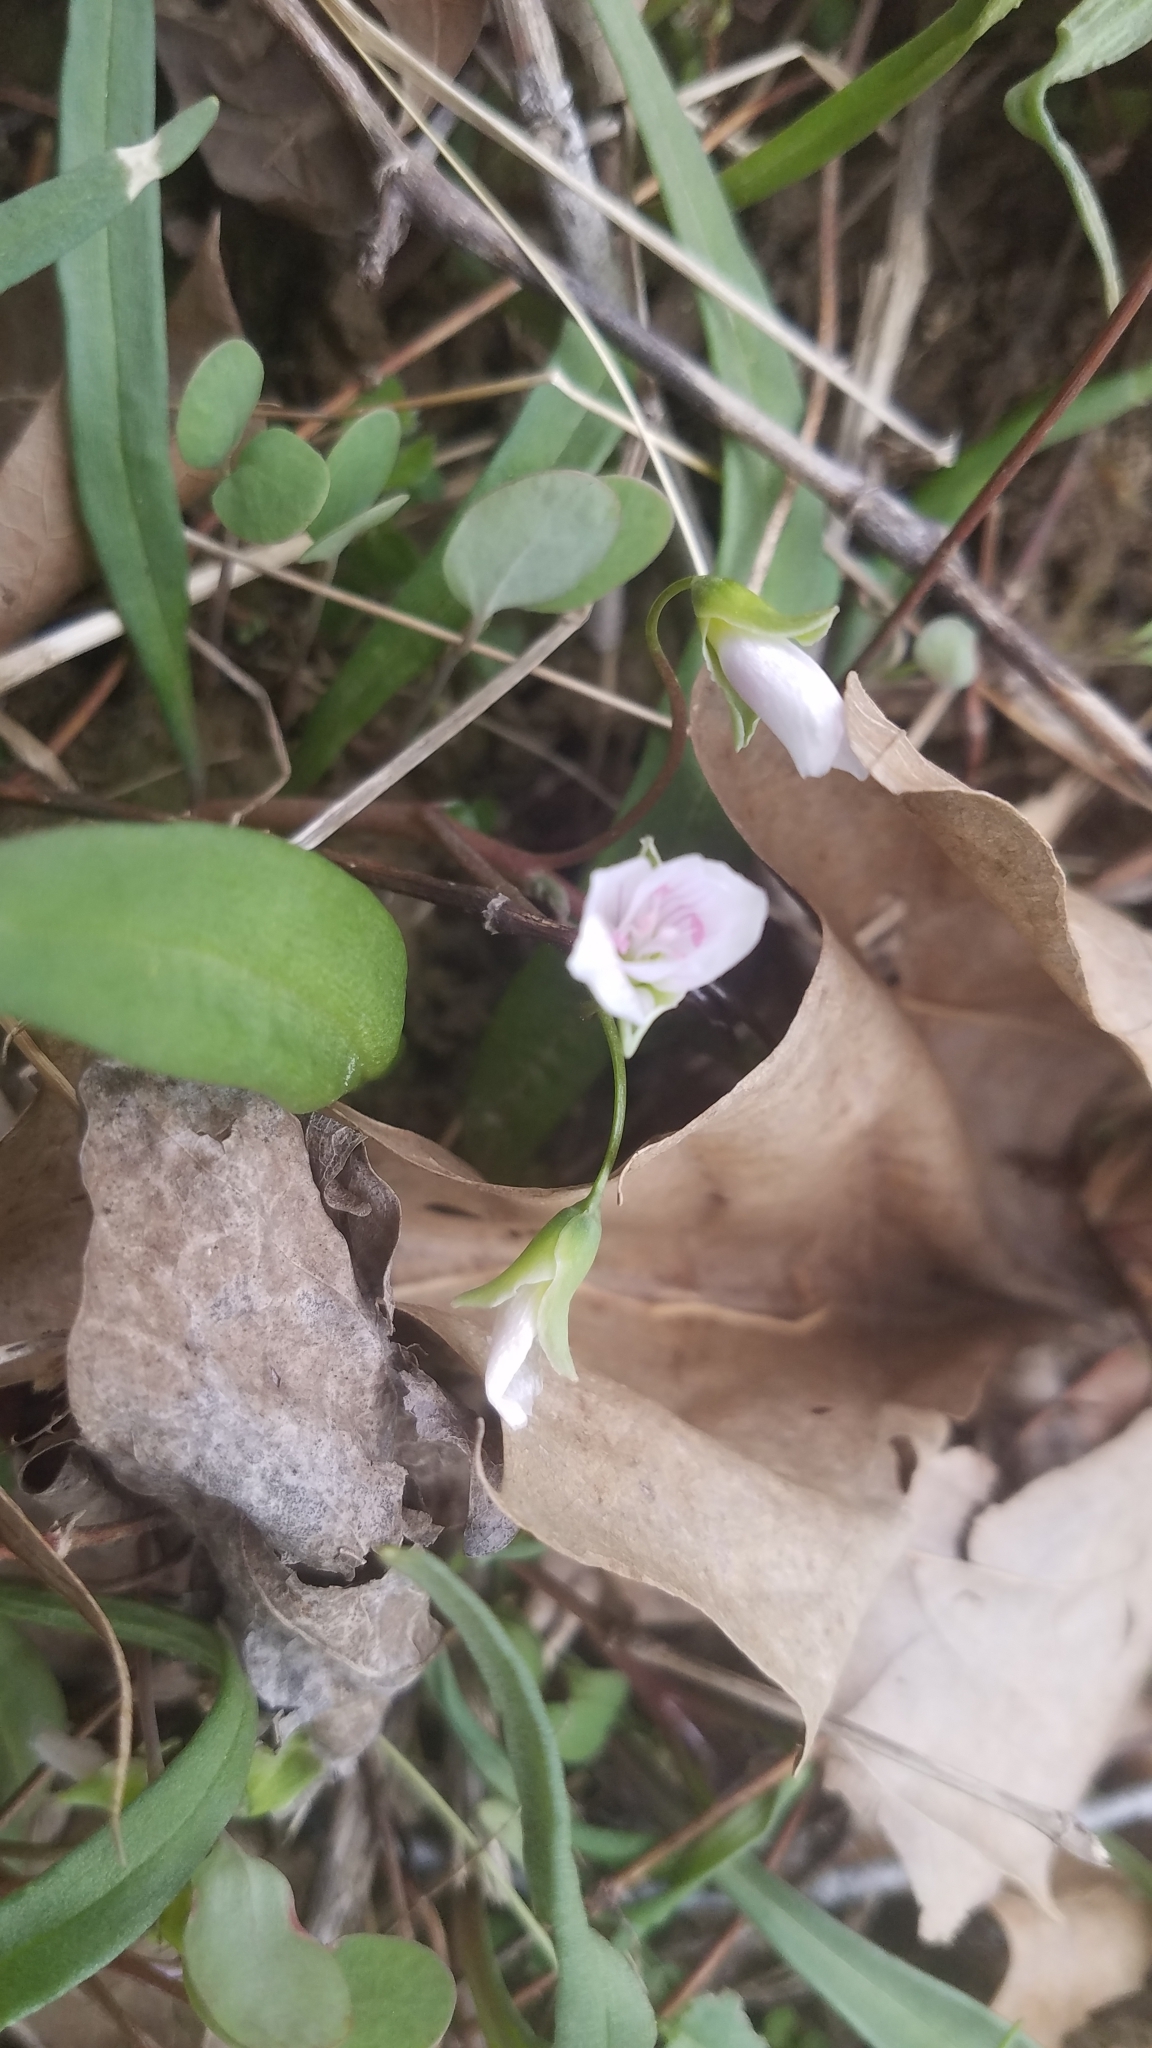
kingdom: Plantae
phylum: Tracheophyta
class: Magnoliopsida
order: Caryophyllales
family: Montiaceae
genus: Claytonia
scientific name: Claytonia virginica
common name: Virginia springbeauty
